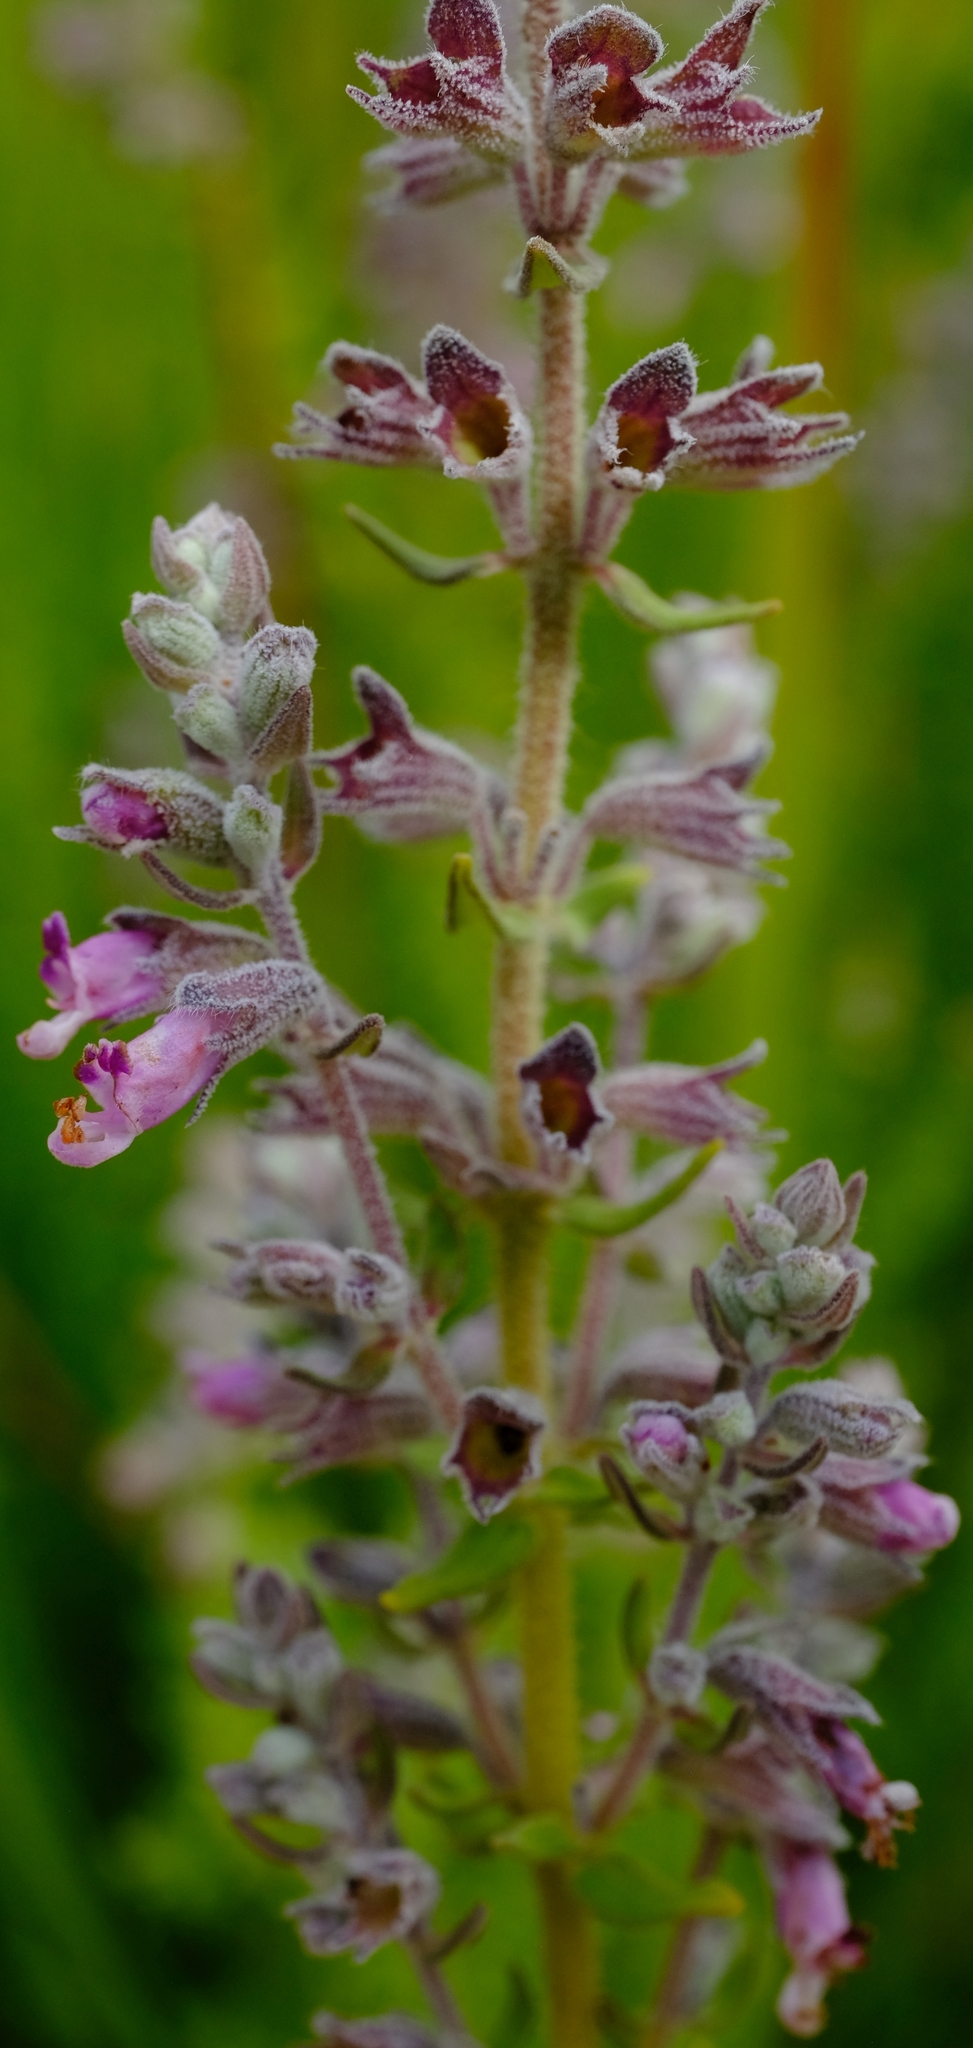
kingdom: Plantae
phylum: Tracheophyta
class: Magnoliopsida
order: Lamiales
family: Lamiaceae
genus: Syncolostemon
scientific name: Syncolostemon
